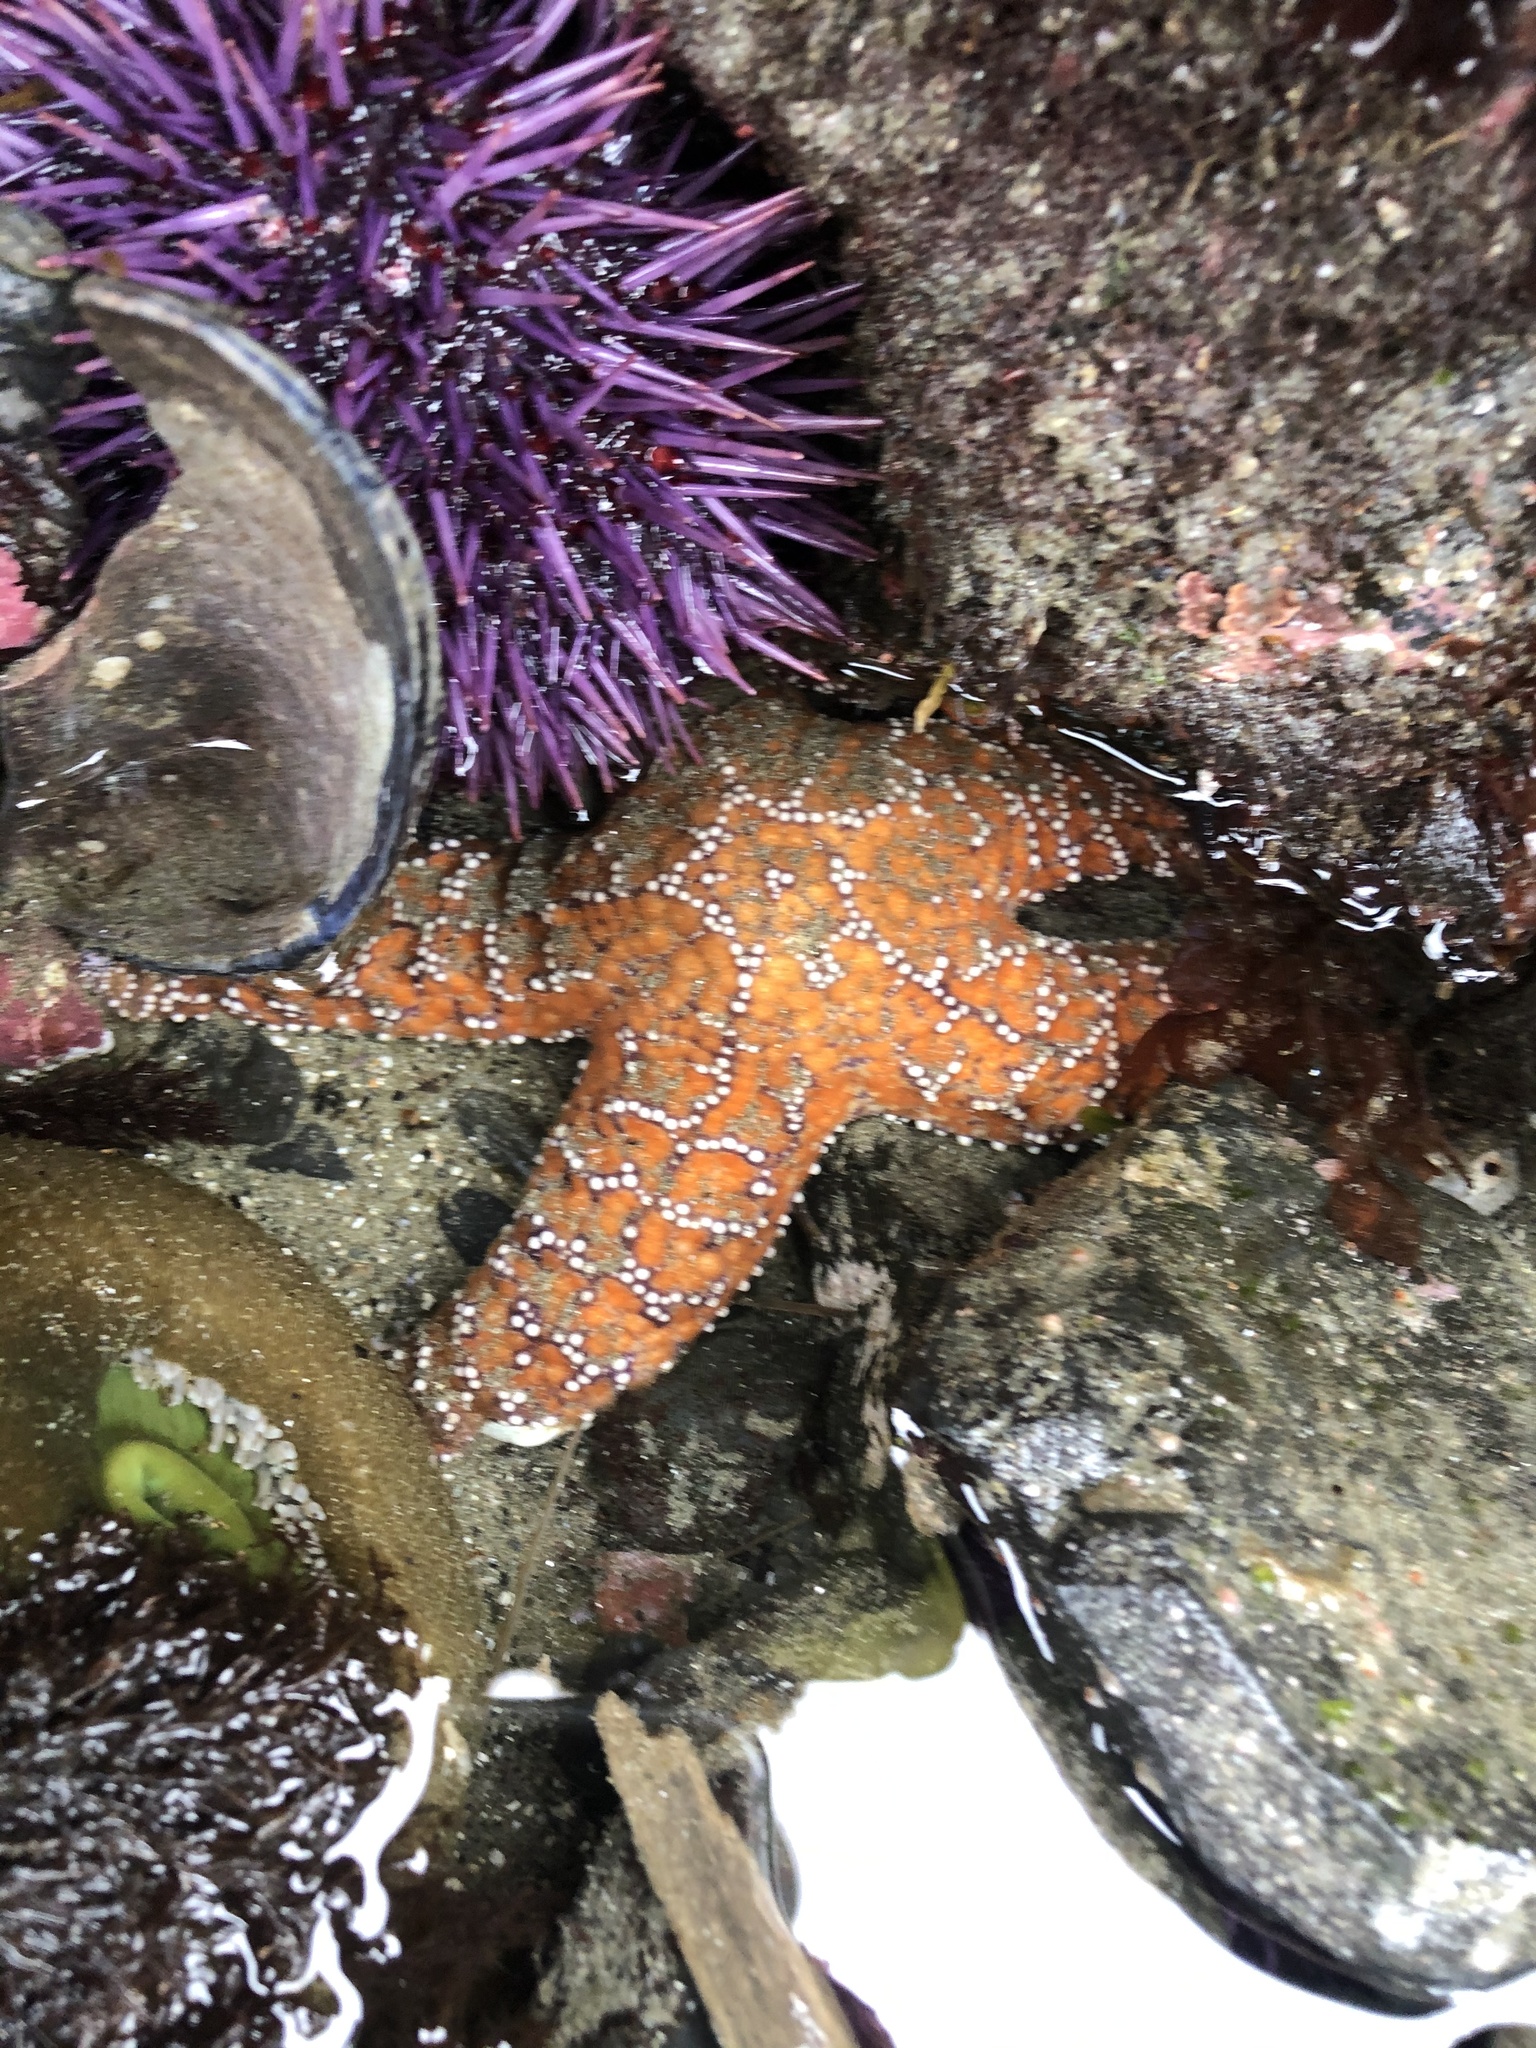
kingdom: Animalia
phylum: Echinodermata
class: Asteroidea
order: Forcipulatida
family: Asteriidae
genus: Pisaster
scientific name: Pisaster ochraceus
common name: Ochre stars
